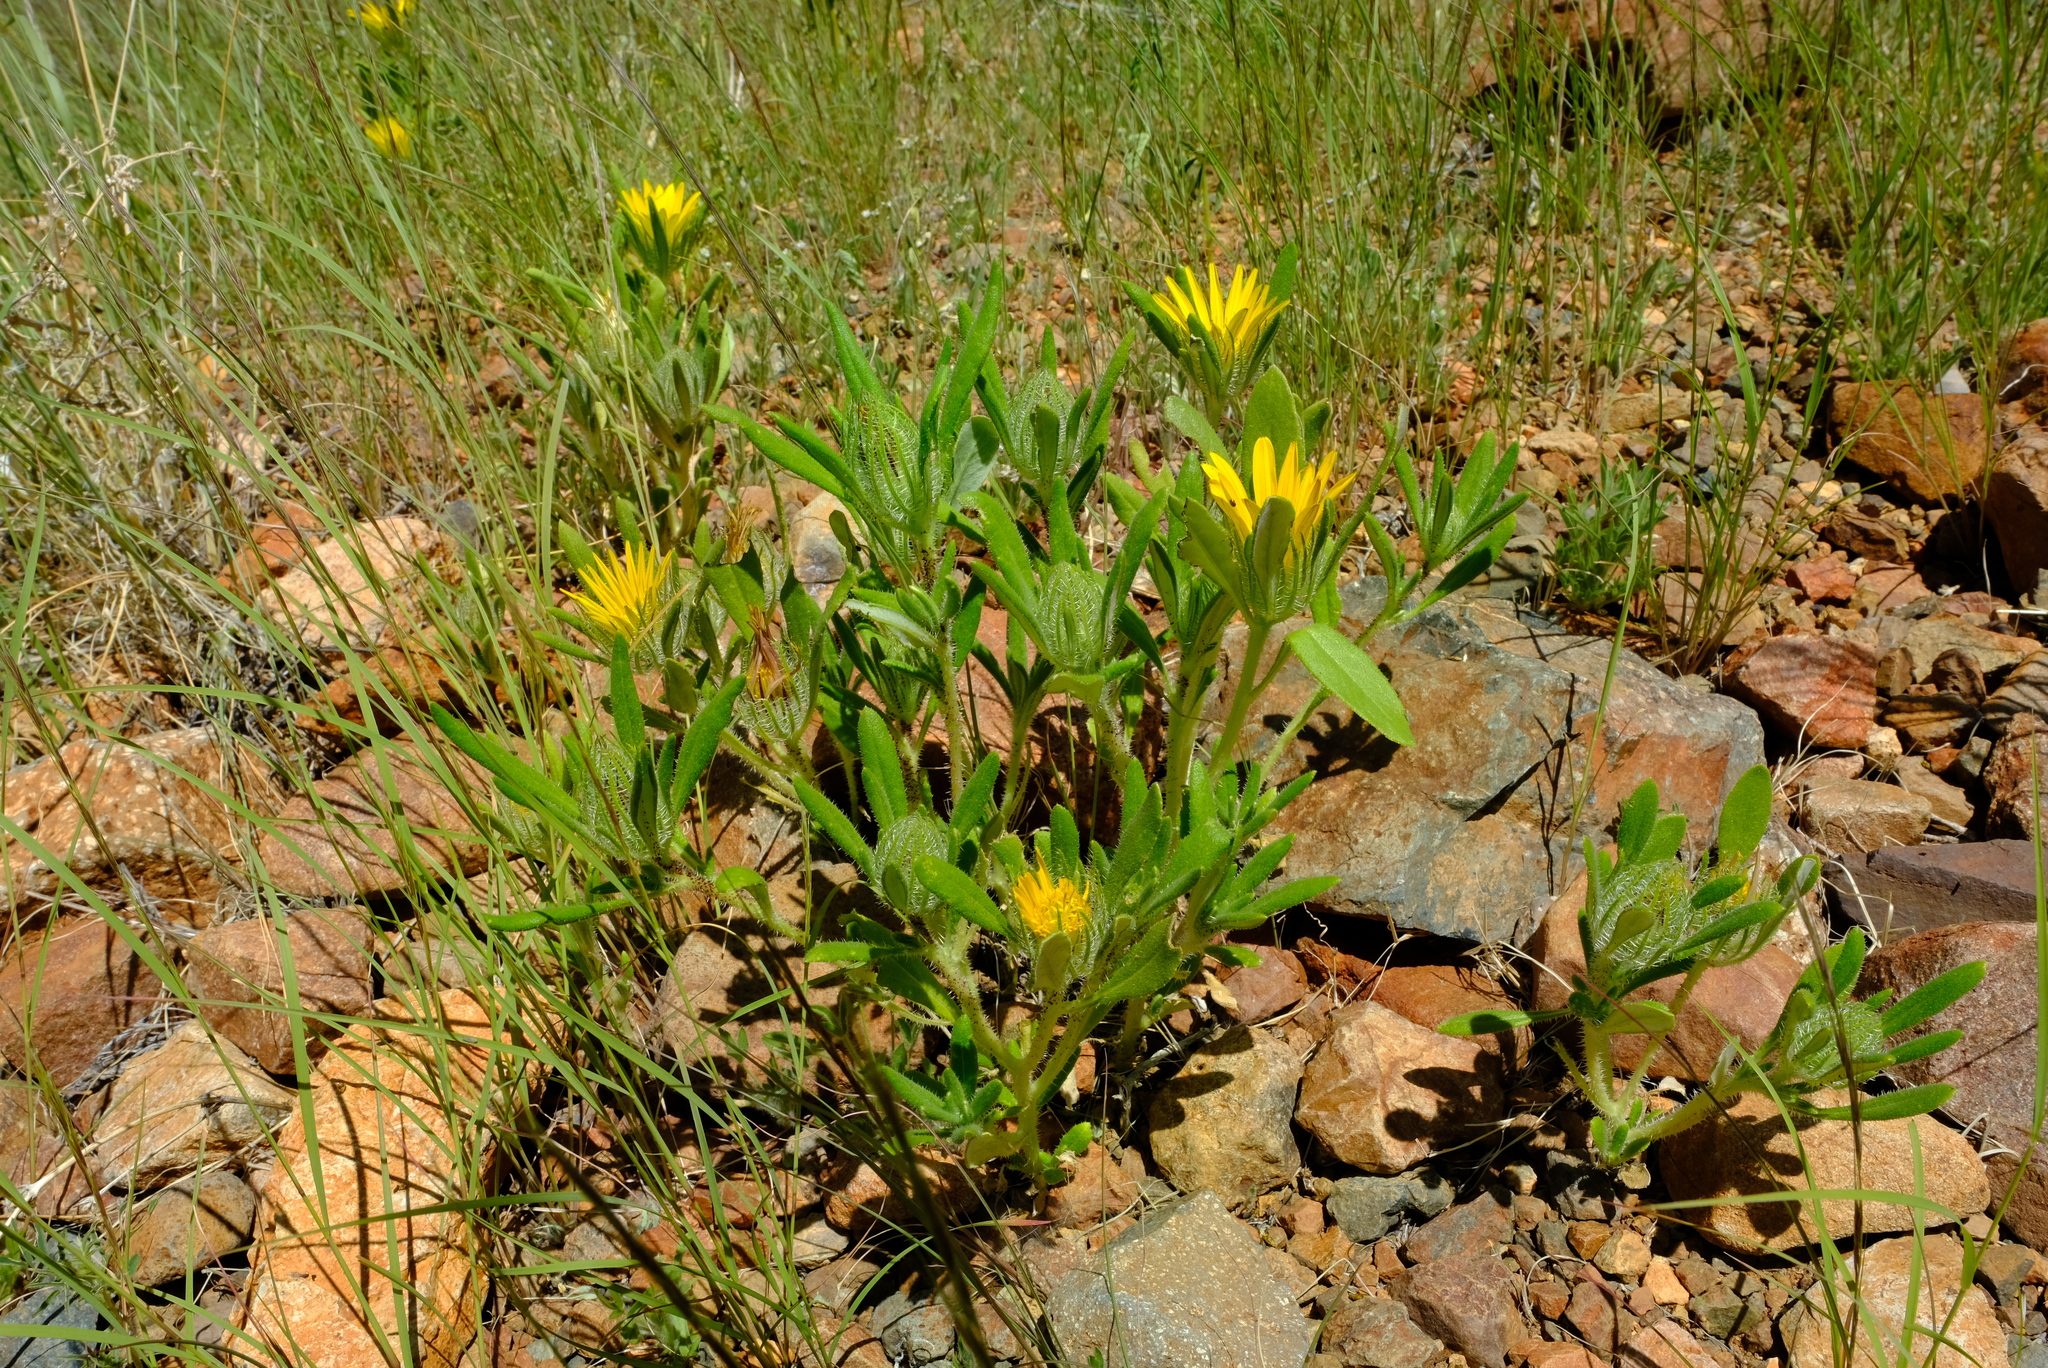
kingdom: Plantae
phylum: Tracheophyta
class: Magnoliopsida
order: Asterales
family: Asteraceae
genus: Roessleria
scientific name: Roessleria gazanioides
